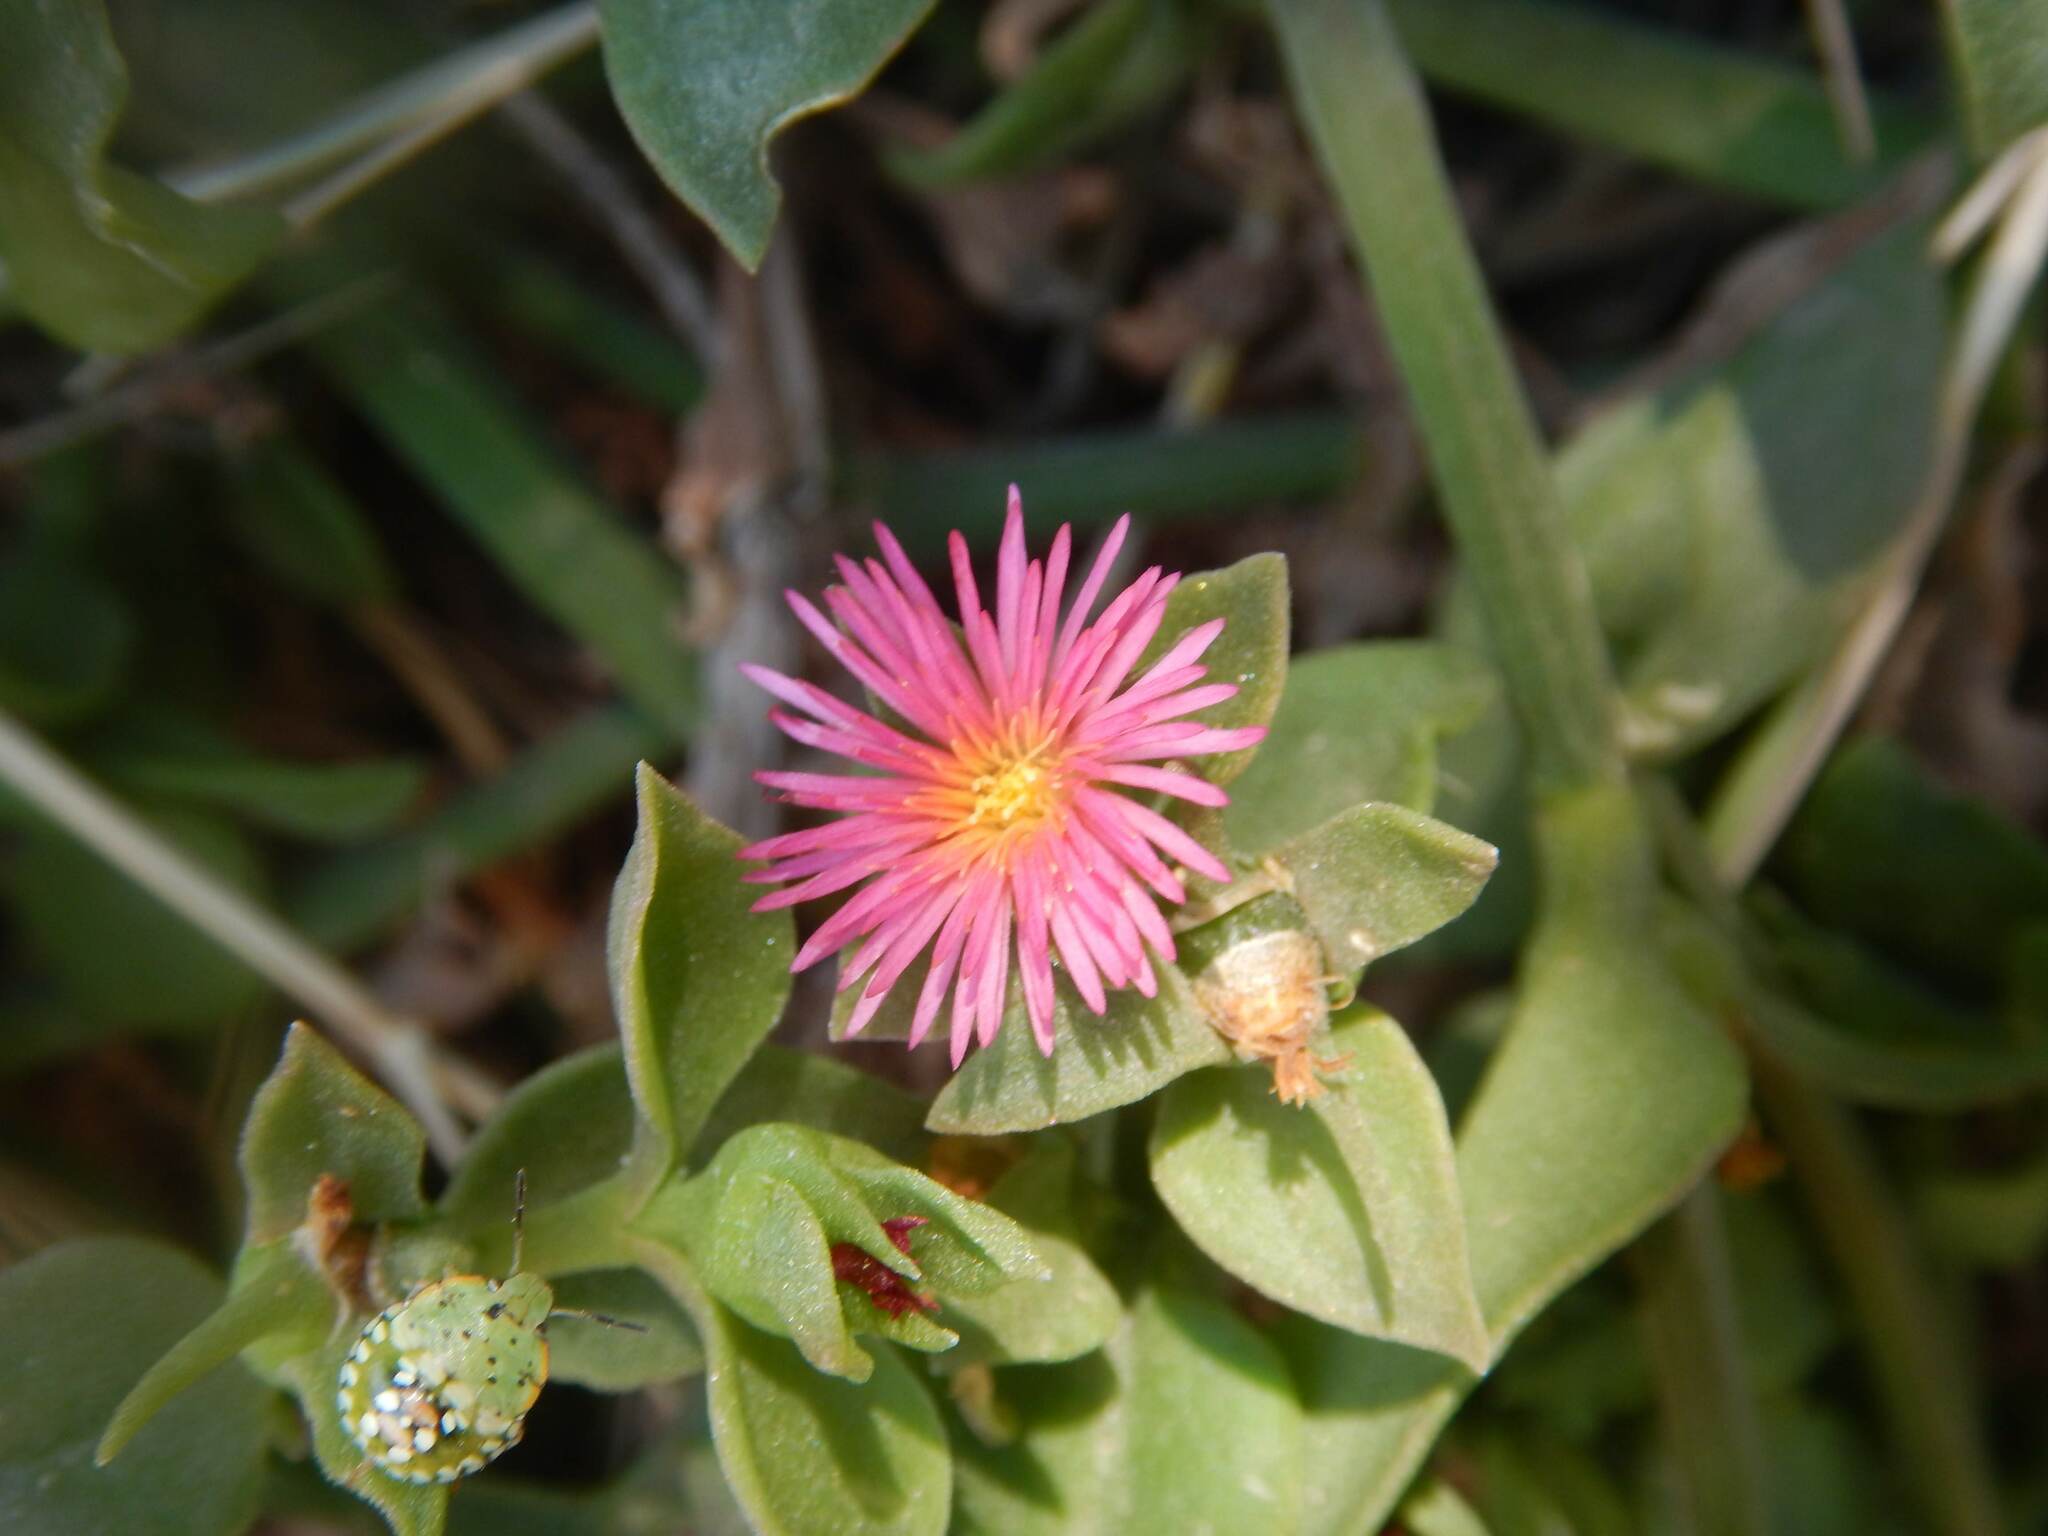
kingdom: Plantae
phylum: Tracheophyta
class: Magnoliopsida
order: Caryophyllales
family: Aizoaceae
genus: Mesembryanthemum
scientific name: Mesembryanthemum cordifolium
